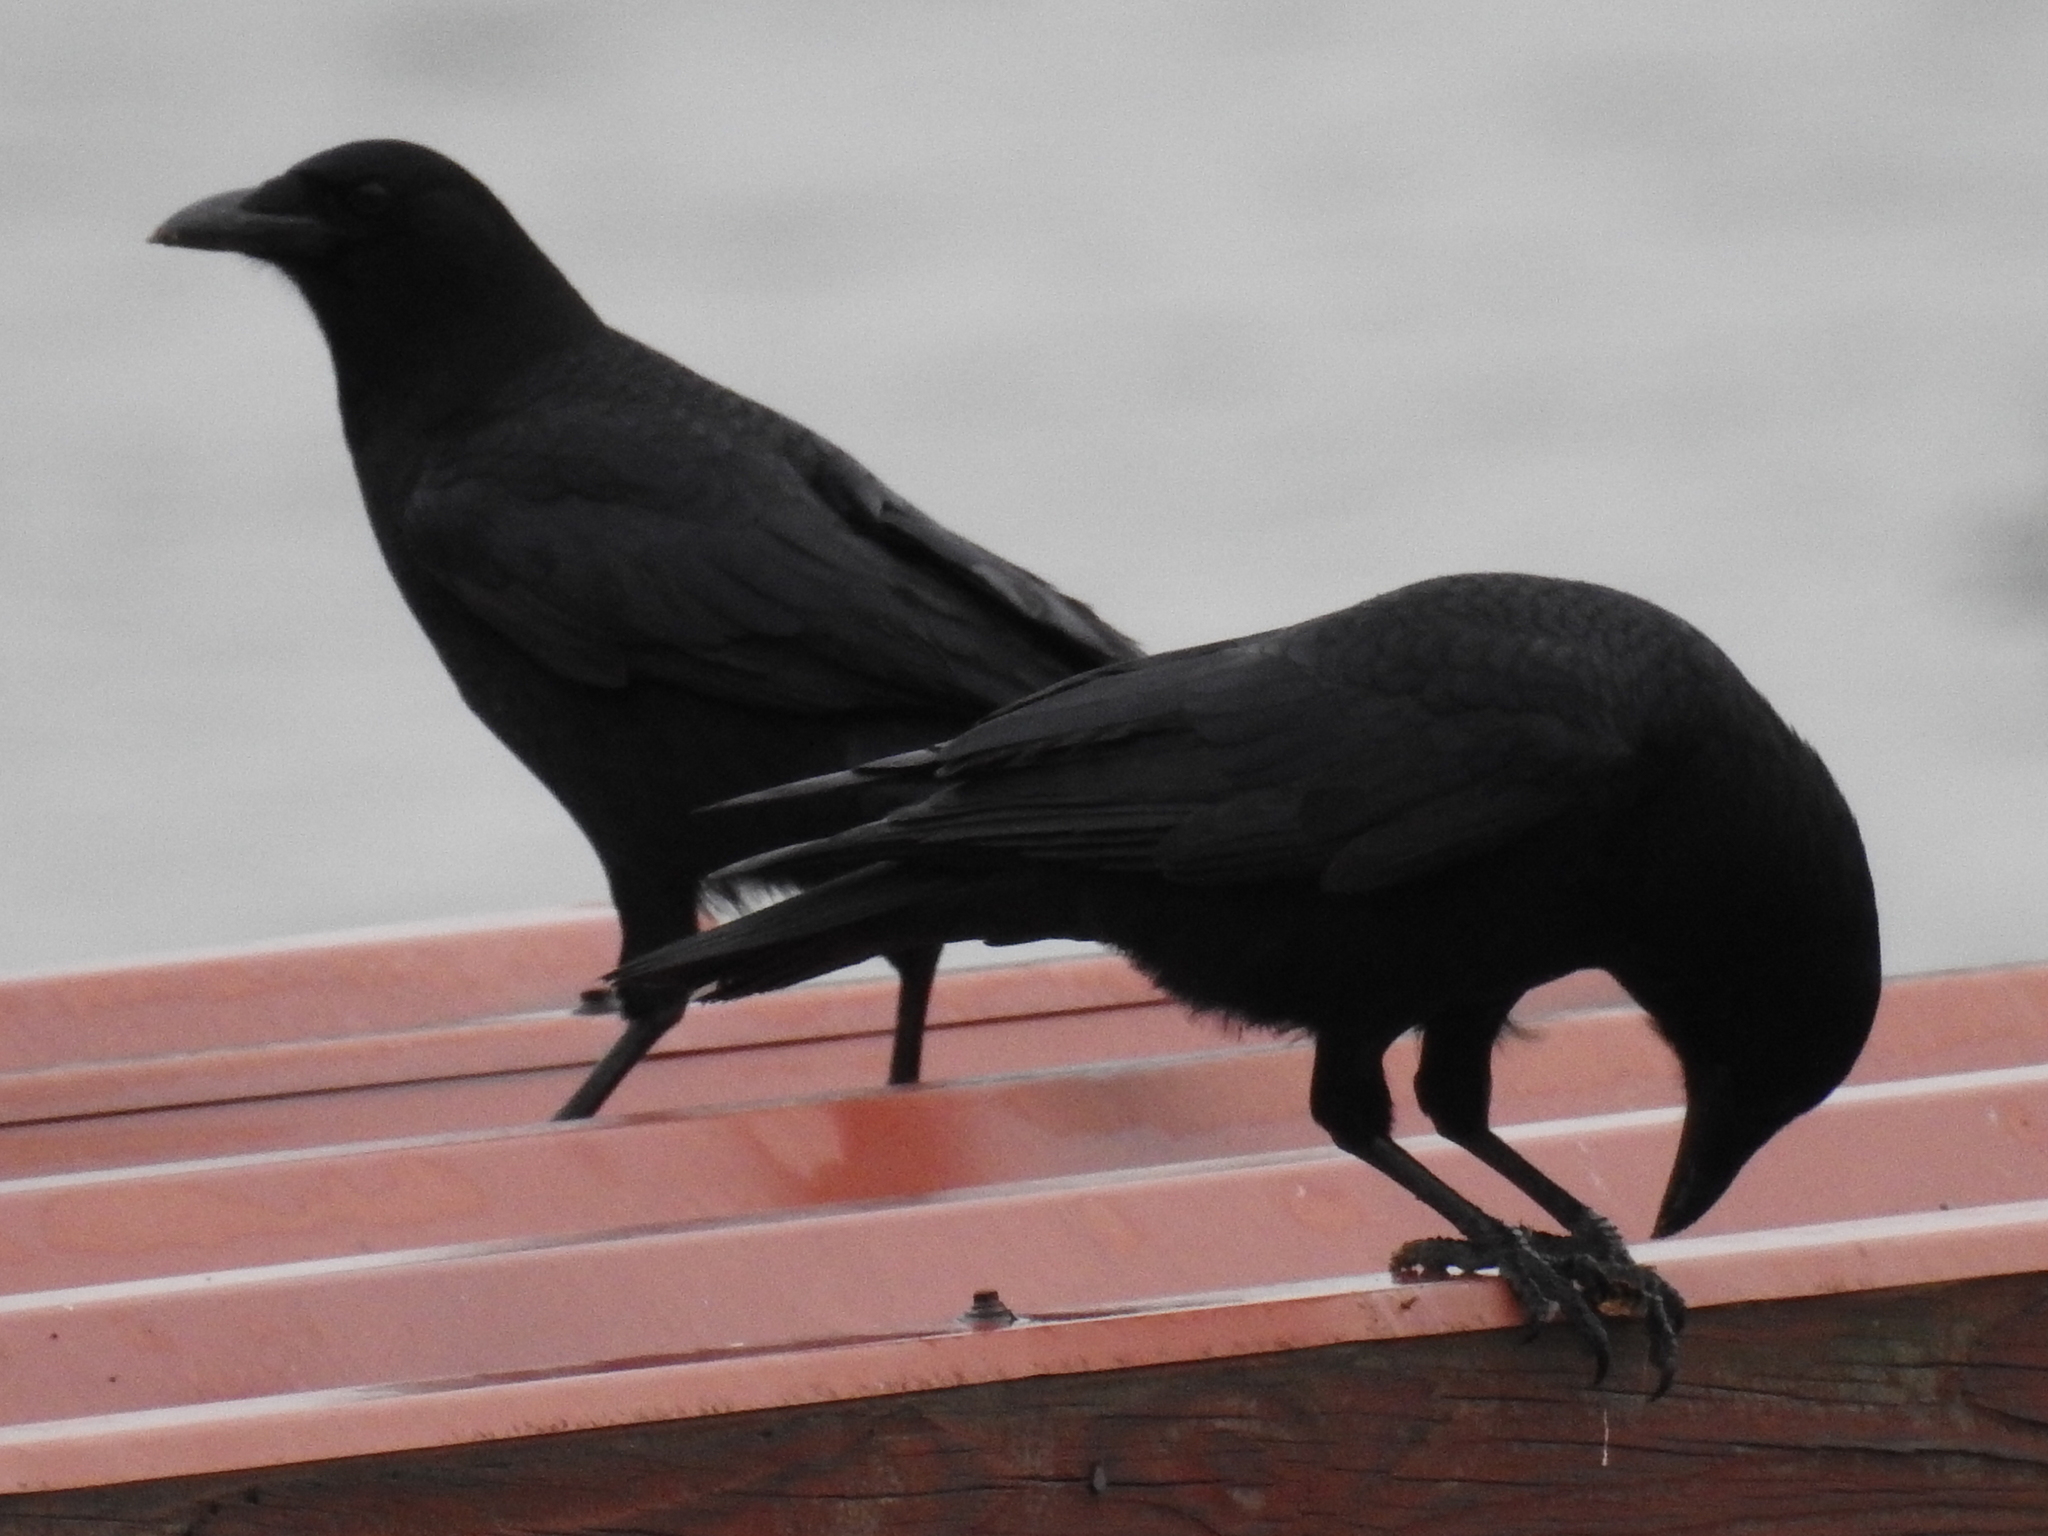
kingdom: Animalia
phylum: Chordata
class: Aves
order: Passeriformes
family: Corvidae
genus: Corvus
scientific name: Corvus brachyrhynchos
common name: American crow
